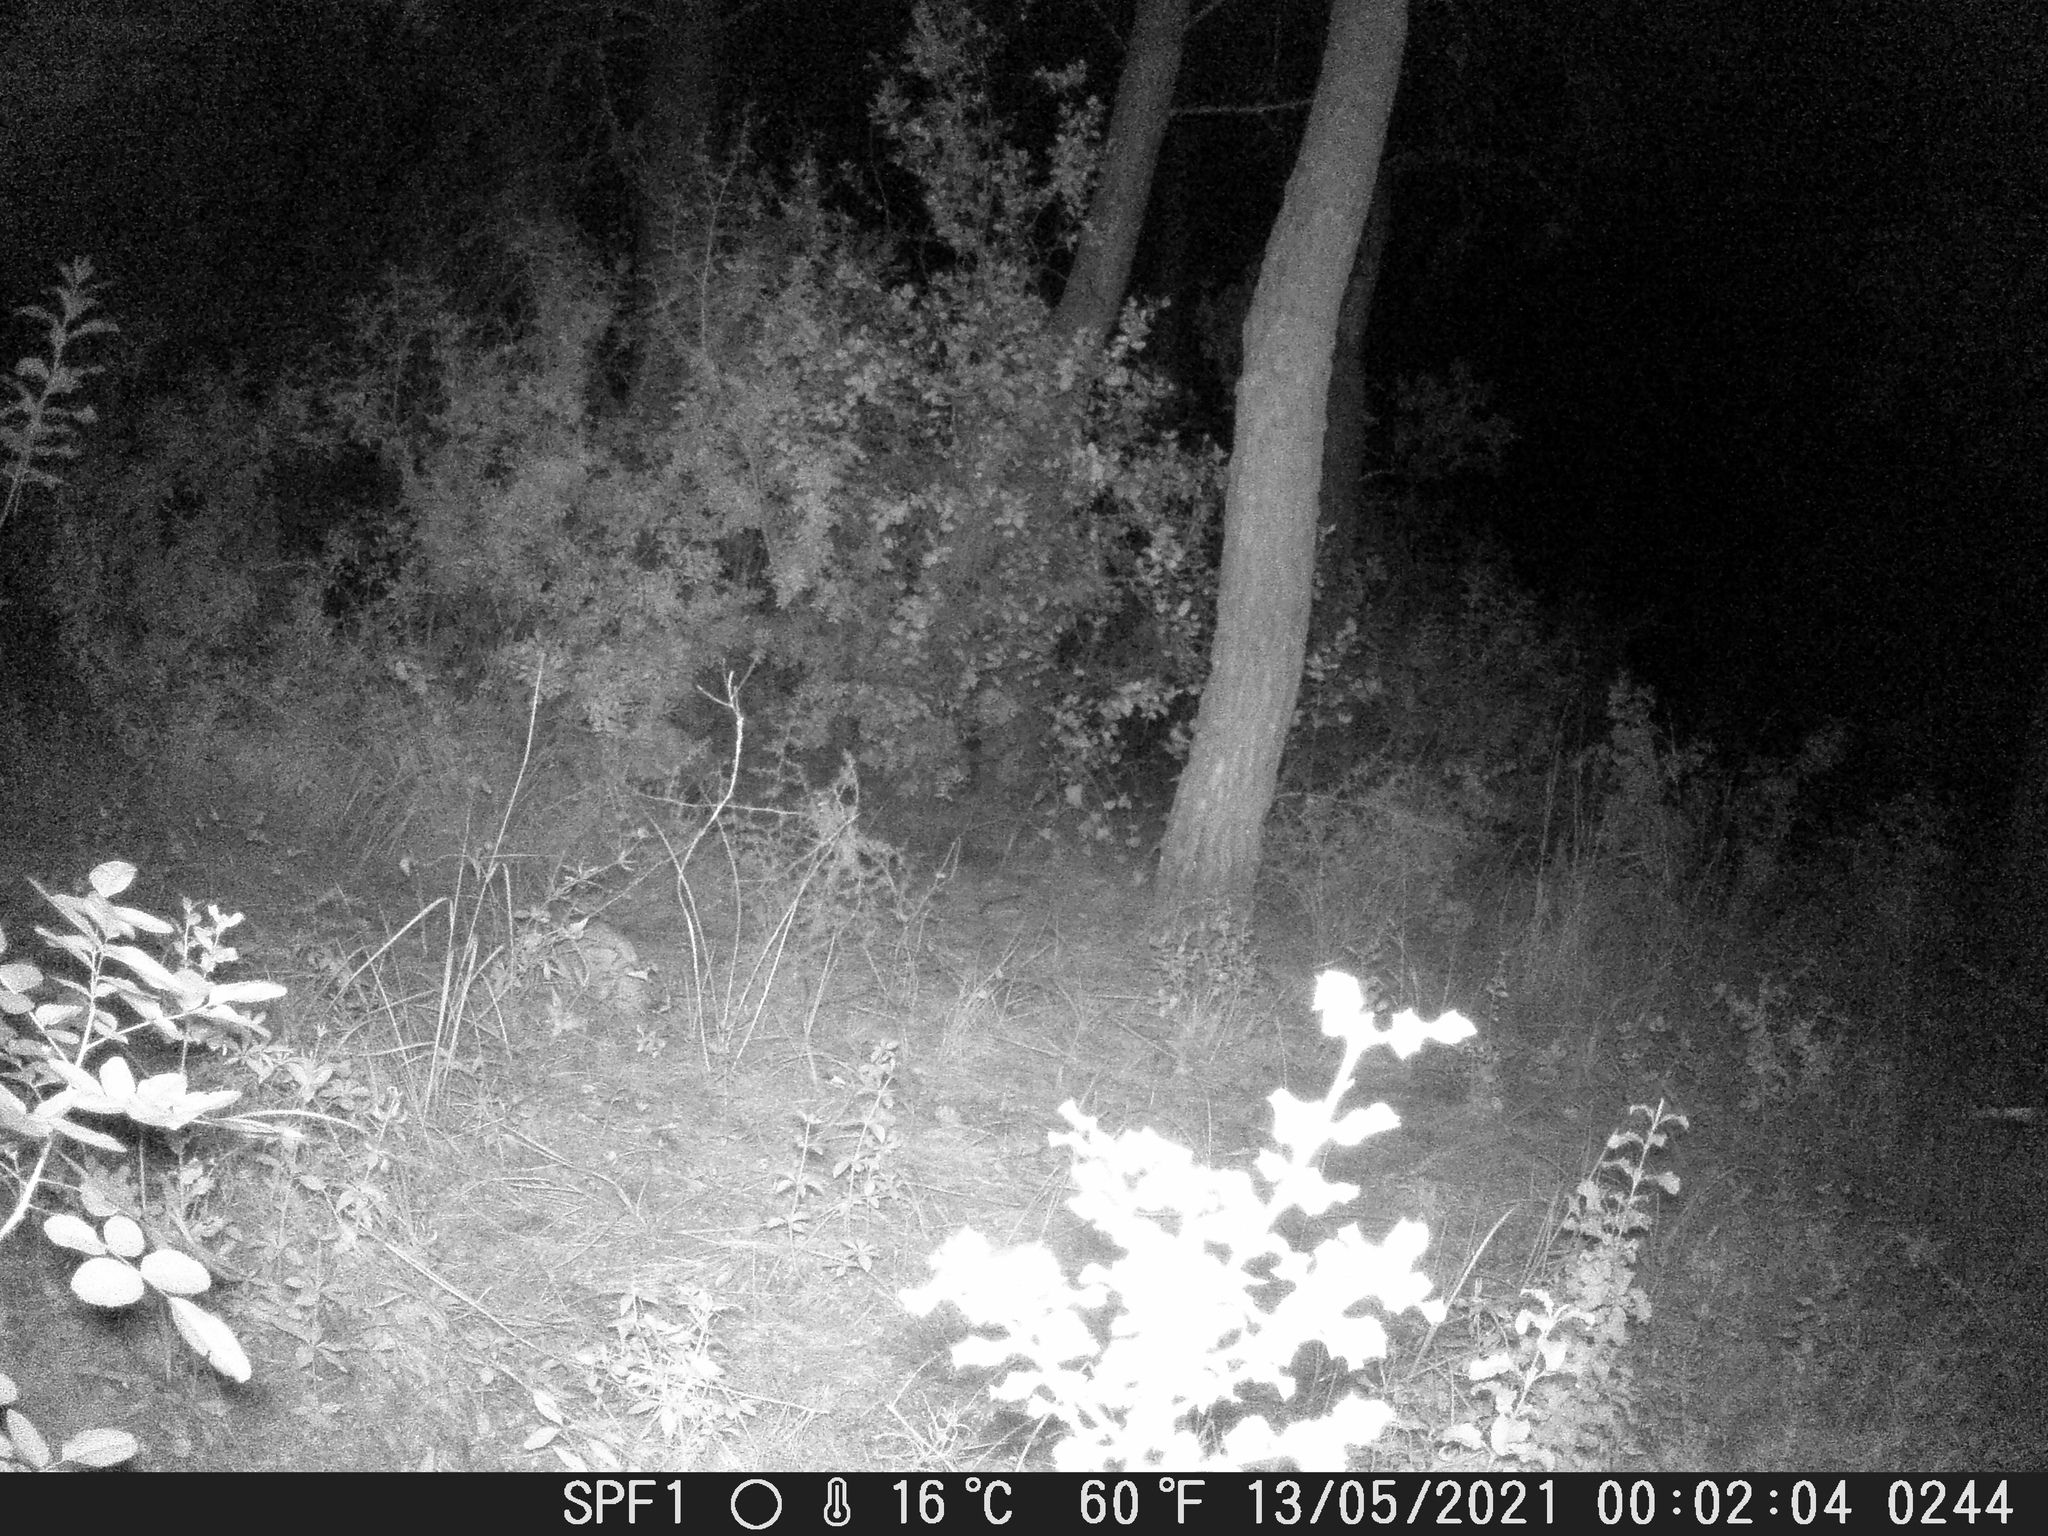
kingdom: Animalia
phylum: Chordata
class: Mammalia
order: Carnivora
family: Mustelidae
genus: Meles
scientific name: Meles meles
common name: Eurasian badger
